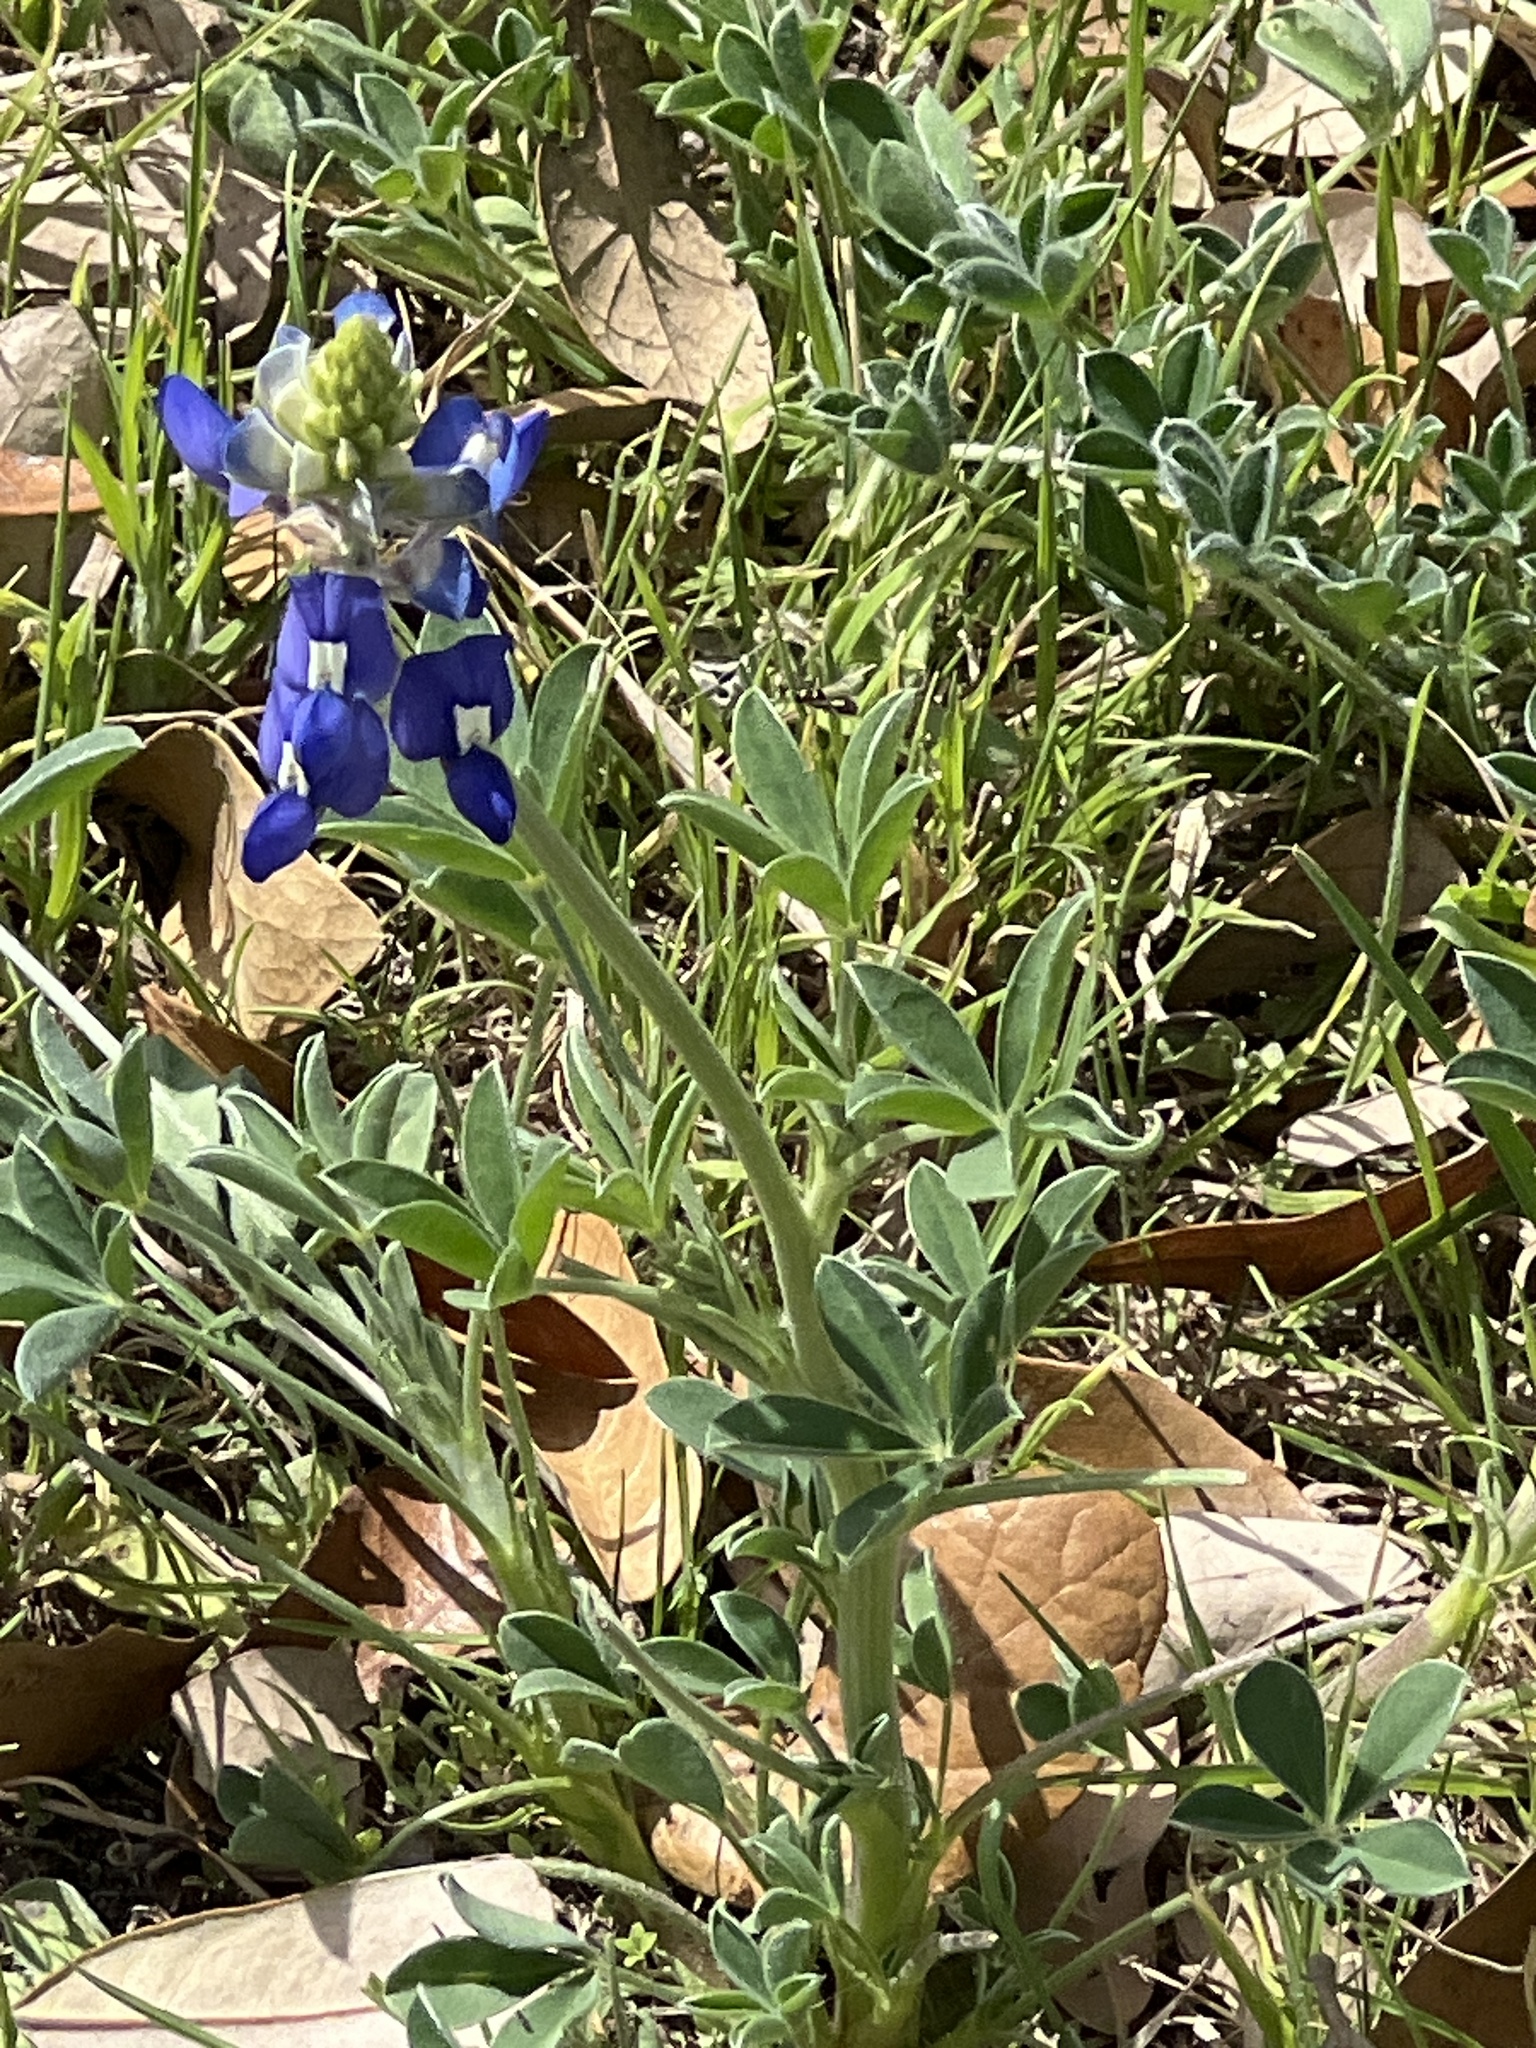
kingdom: Plantae
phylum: Tracheophyta
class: Magnoliopsida
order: Fabales
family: Fabaceae
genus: Lupinus
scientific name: Lupinus texensis
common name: Texas bluebonnet
